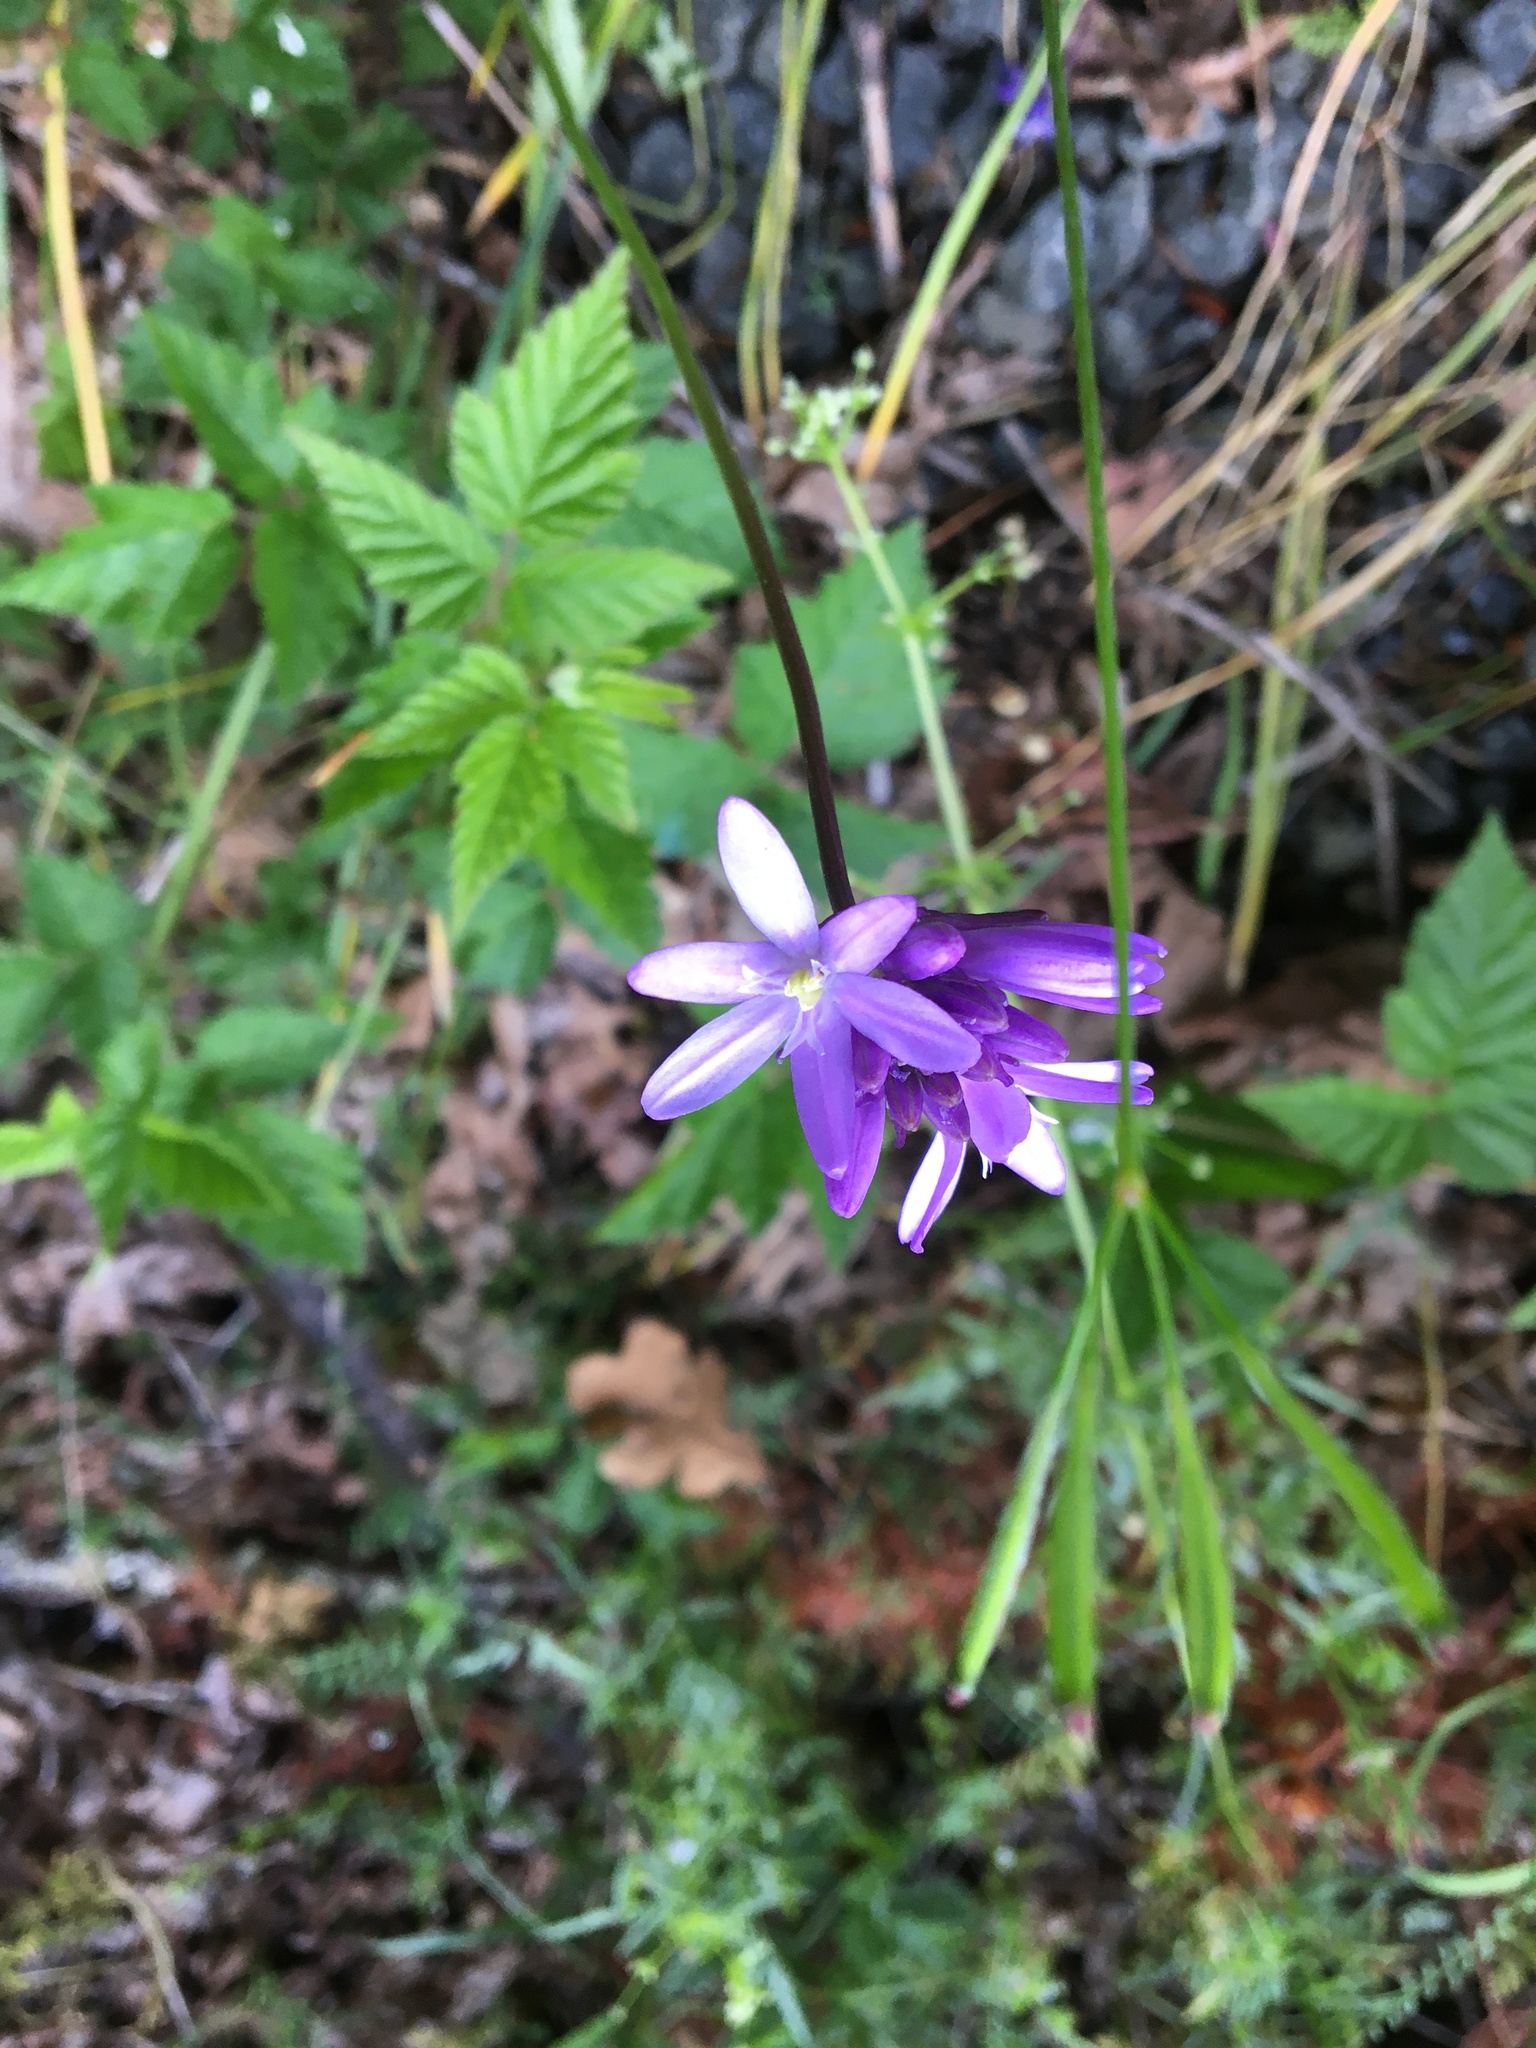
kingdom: Plantae
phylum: Tracheophyta
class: Liliopsida
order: Asparagales
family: Asparagaceae
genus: Dichelostemma
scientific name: Dichelostemma congestum
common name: Fork-tooth ookow
